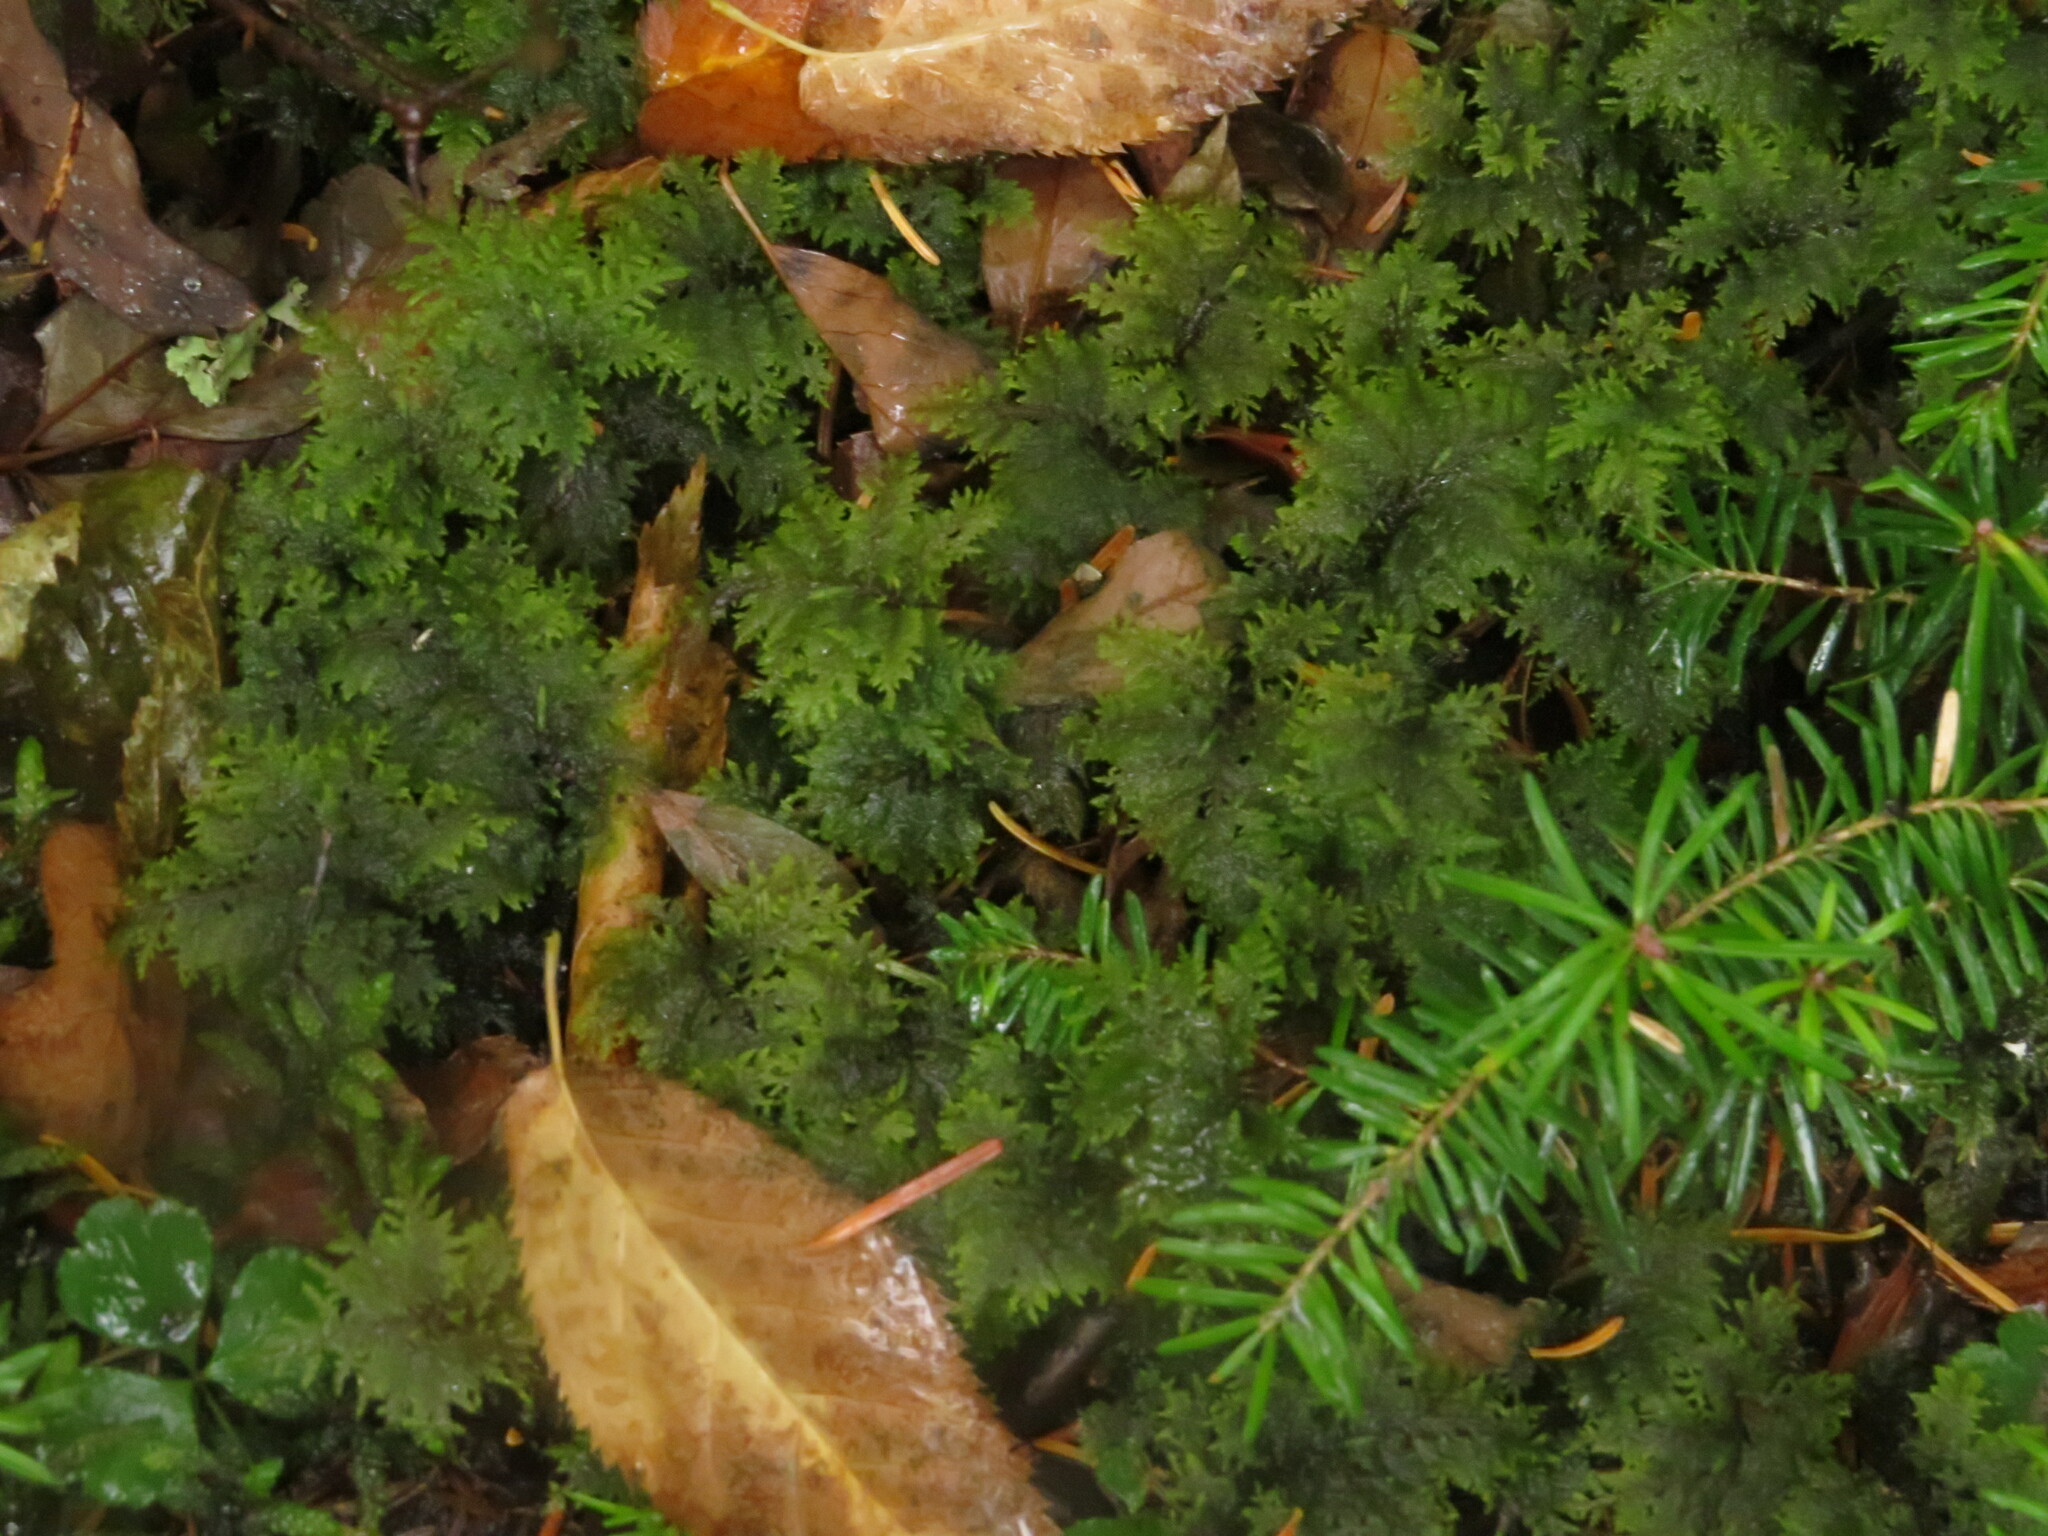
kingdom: Plantae
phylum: Bryophyta
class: Bryopsida
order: Hypnales
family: Hylocomiaceae
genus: Hylocomium
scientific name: Hylocomium splendens
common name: Stairstep moss
